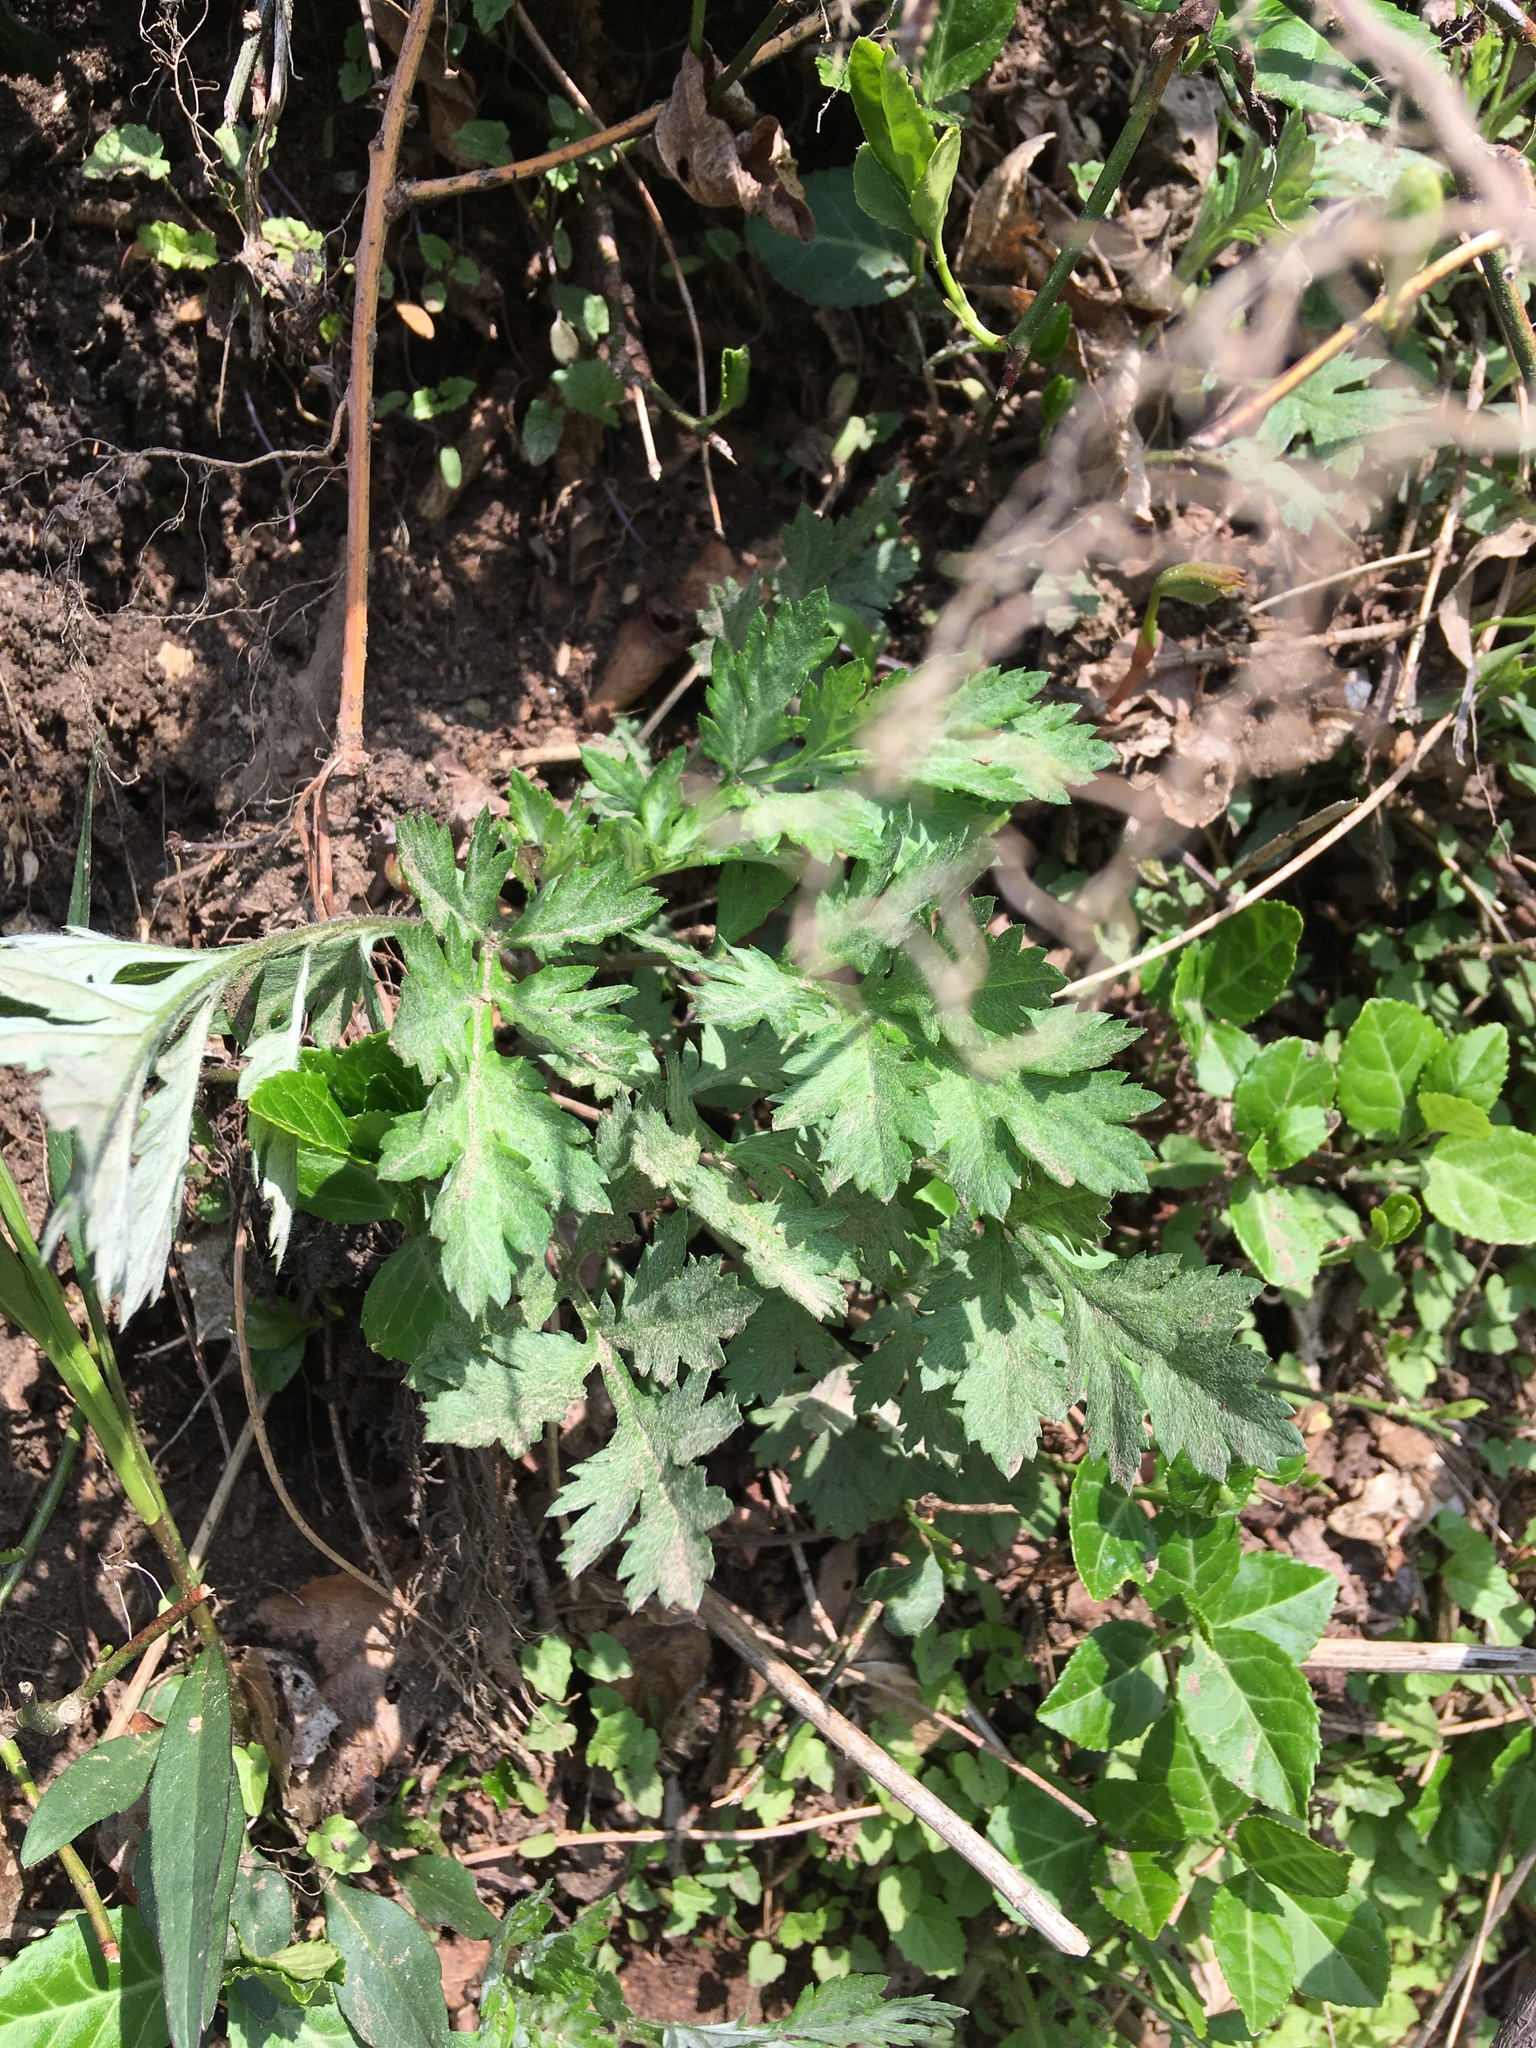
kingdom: Plantae
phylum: Tracheophyta
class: Magnoliopsida
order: Asterales
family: Asteraceae
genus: Artemisia
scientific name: Artemisia vulgaris
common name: Mugwort
